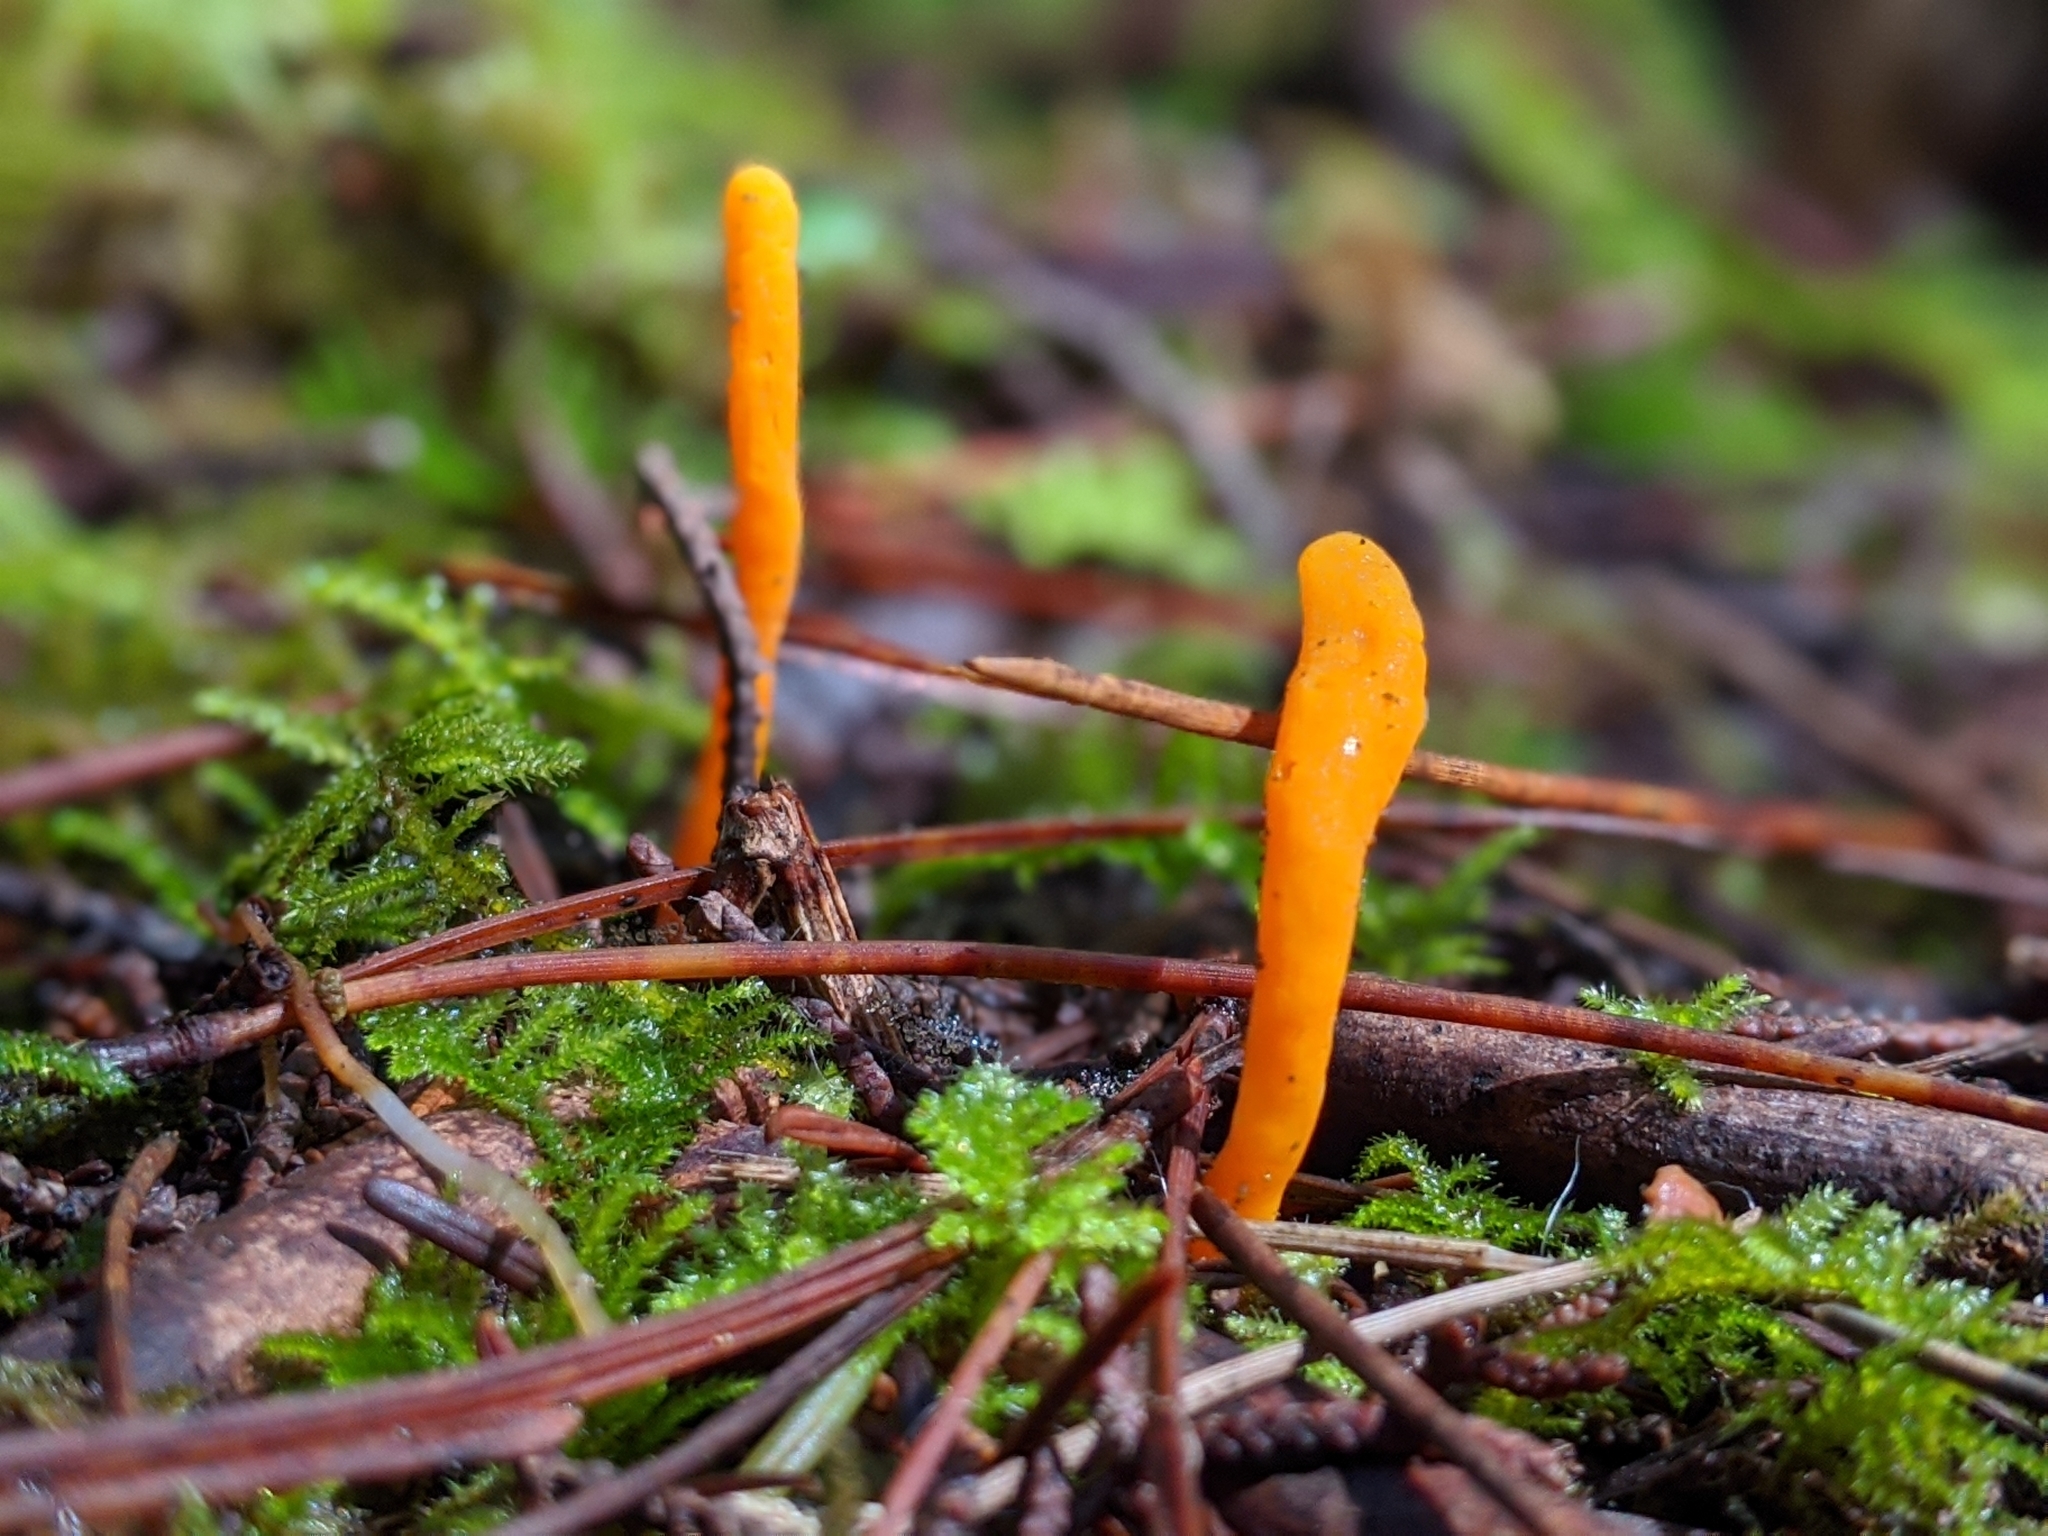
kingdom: Fungi
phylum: Basidiomycota
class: Agaricomycetes
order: Agaricales
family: Clavariaceae
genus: Clavulinopsis
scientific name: Clavulinopsis laeticolor
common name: Handsome club
